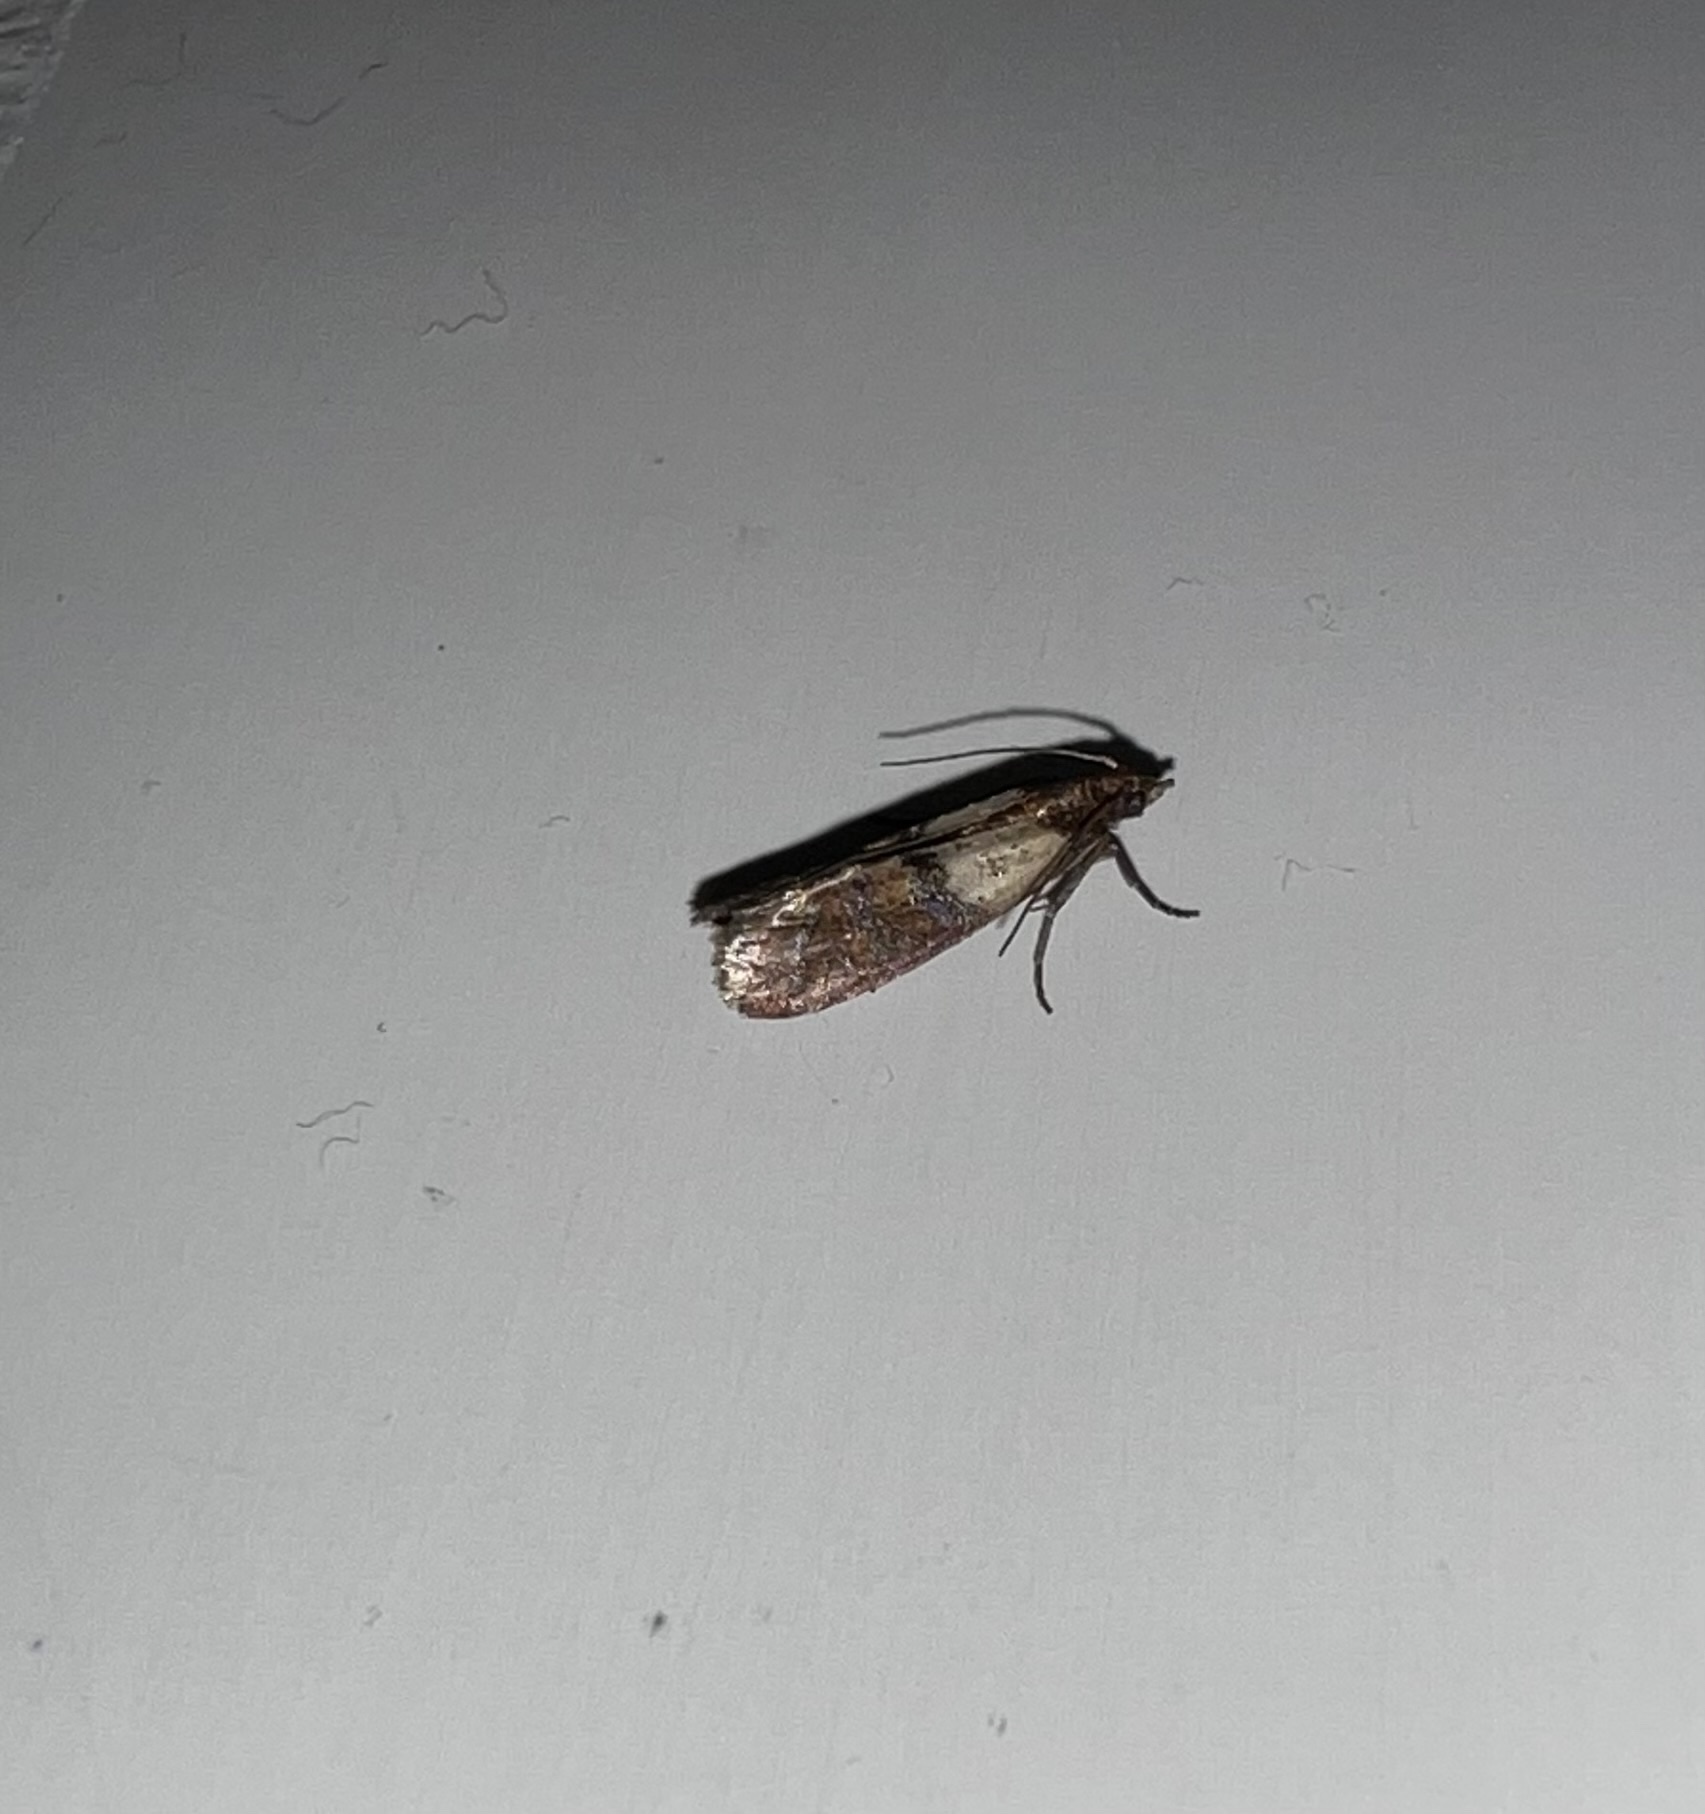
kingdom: Animalia
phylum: Arthropoda
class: Insecta
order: Lepidoptera
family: Pyralidae
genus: Plodia
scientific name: Plodia interpunctella
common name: Indian meal moth
